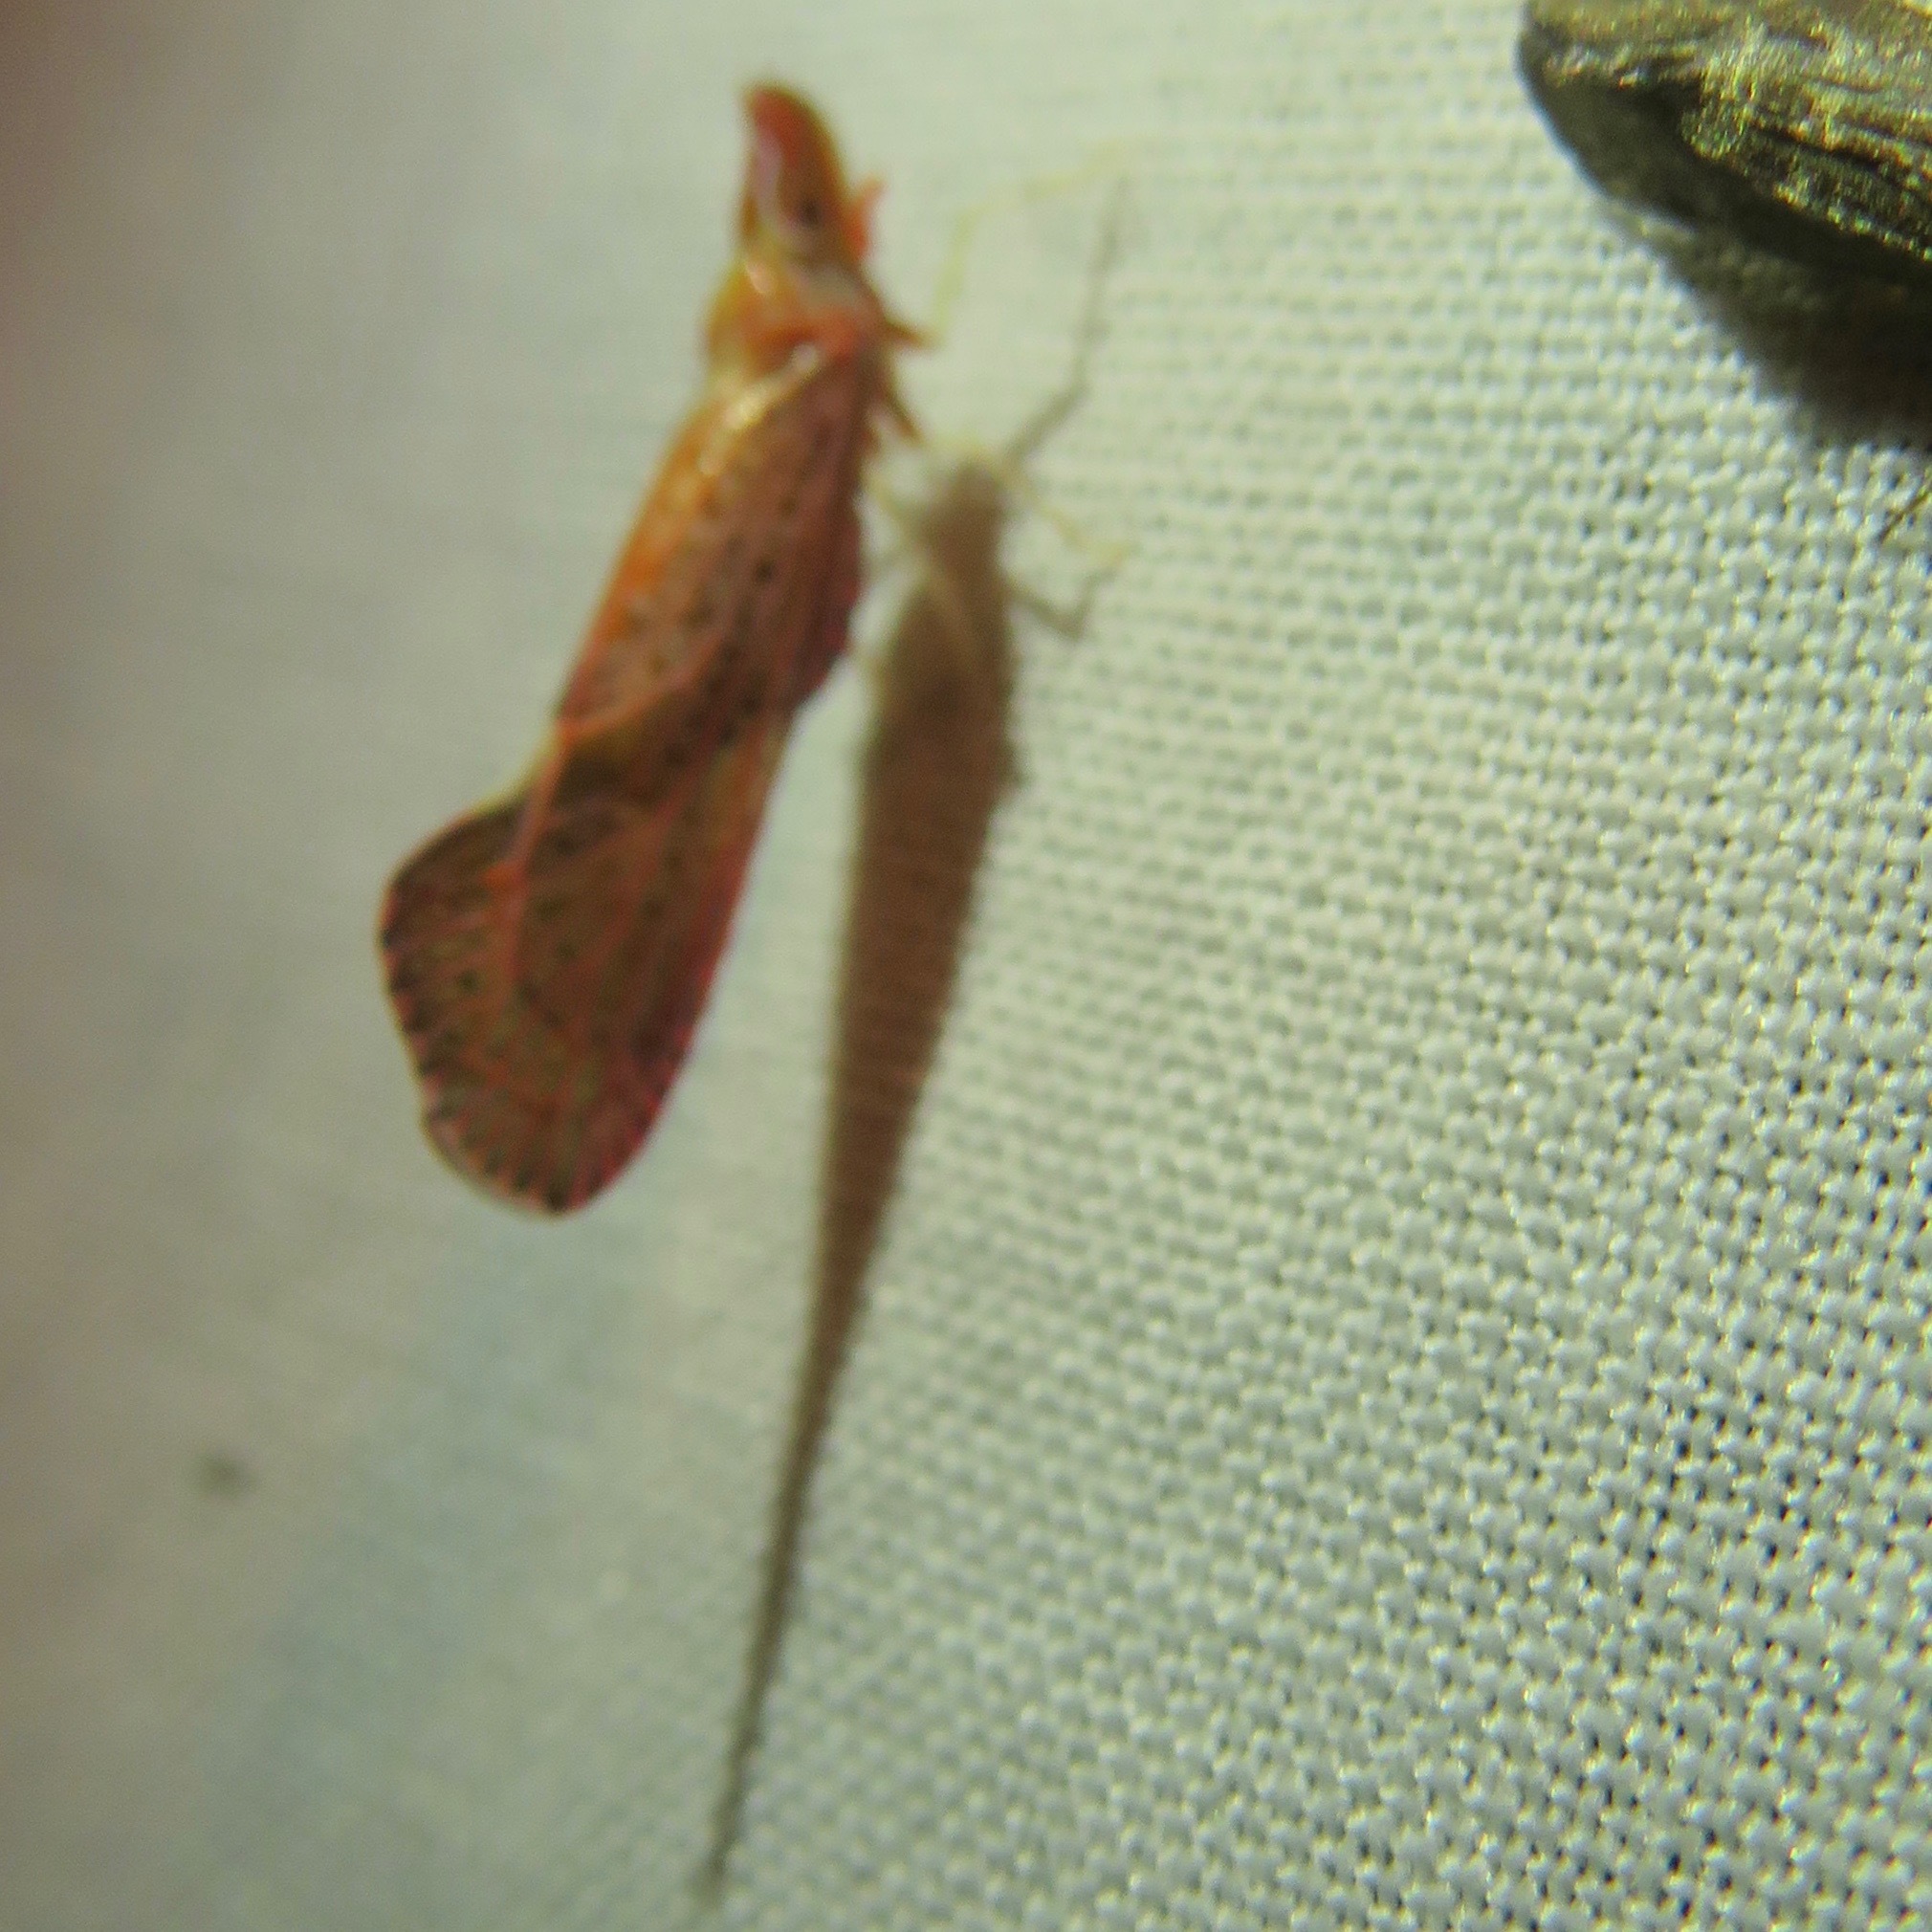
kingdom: Animalia
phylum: Arthropoda
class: Insecta
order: Hemiptera
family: Derbidae
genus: Apache
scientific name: Apache californicum
